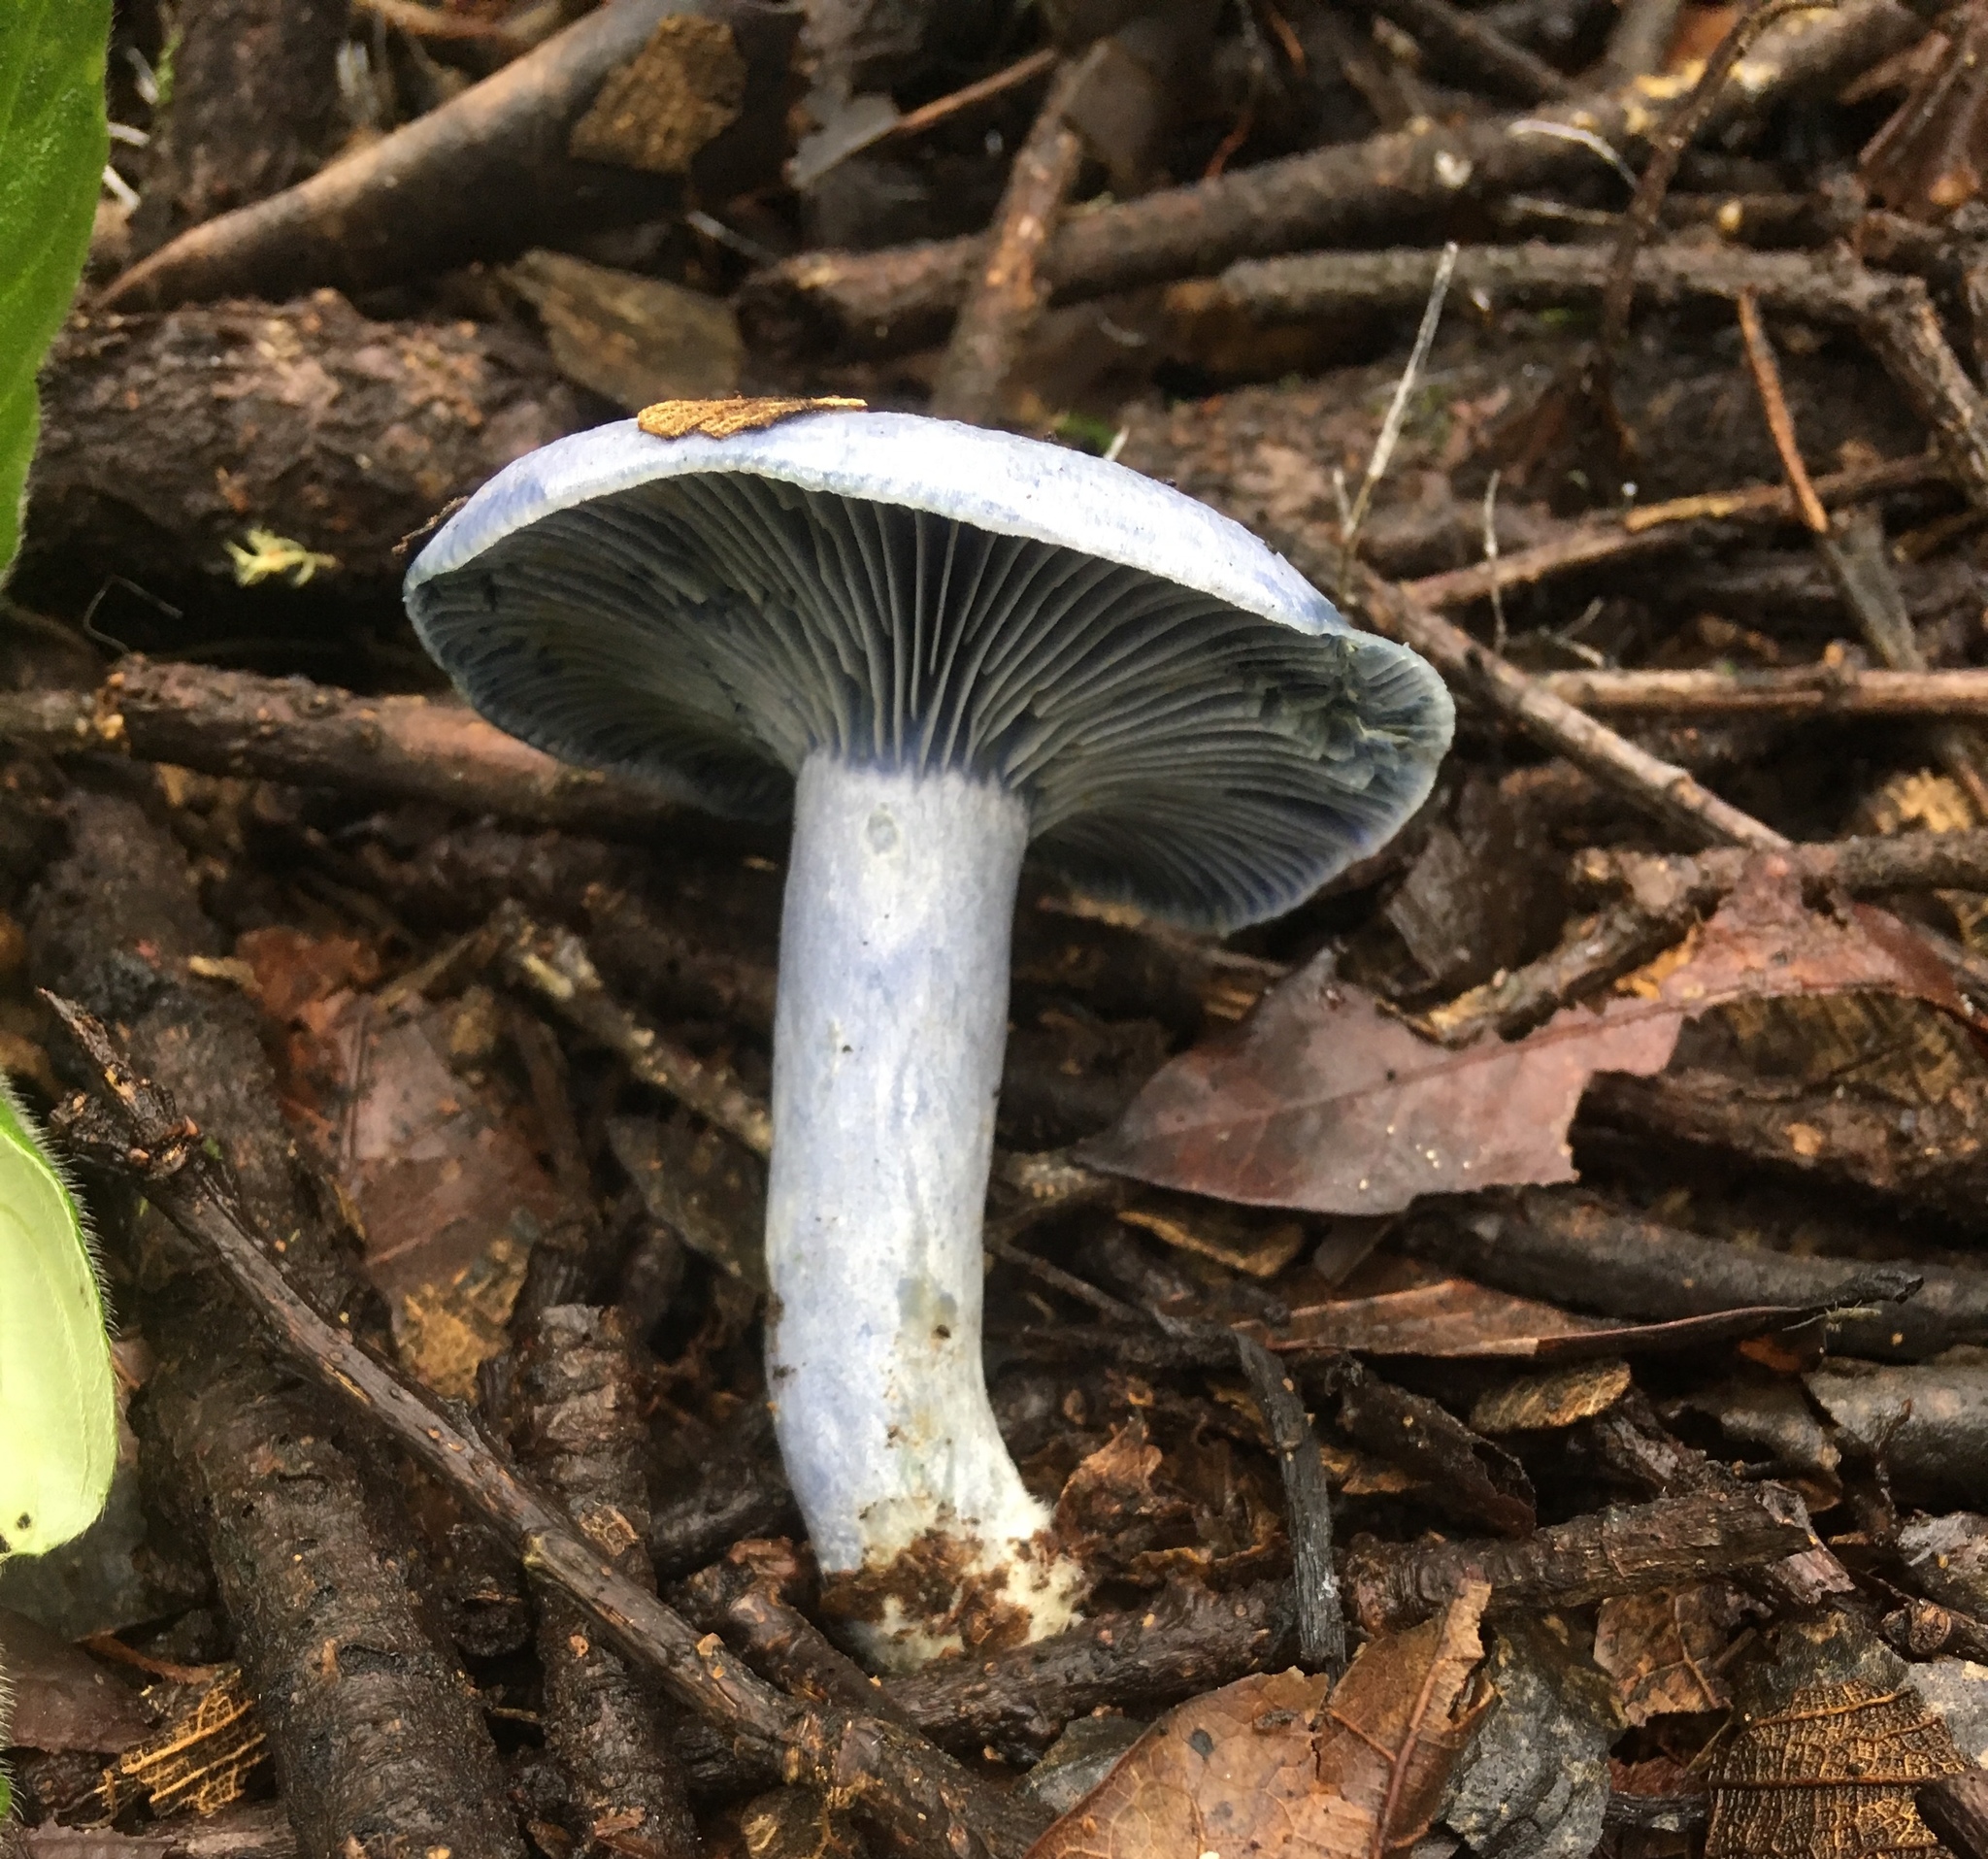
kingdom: Fungi
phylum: Basidiomycota
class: Agaricomycetes
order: Russulales
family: Russulaceae
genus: Lactarius
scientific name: Lactarius indigo
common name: Indigo milk cap
